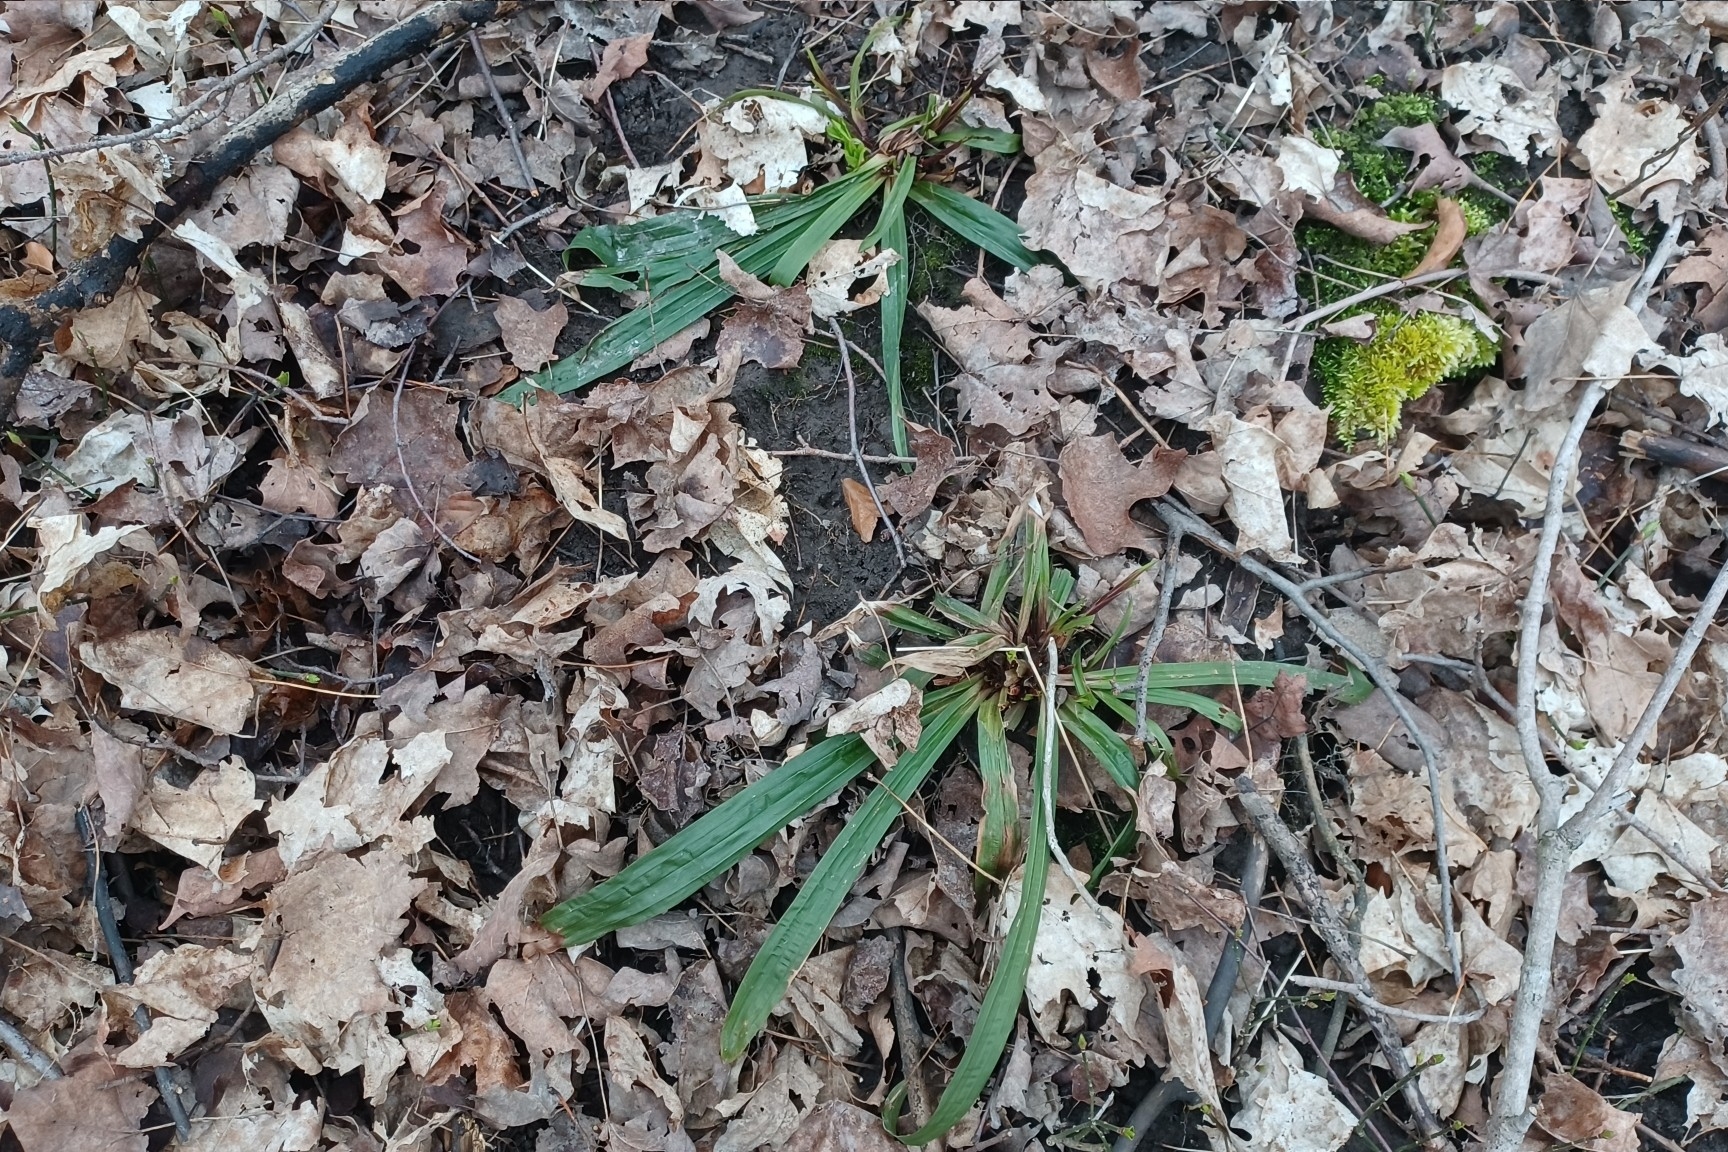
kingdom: Plantae
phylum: Tracheophyta
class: Liliopsida
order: Poales
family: Cyperaceae
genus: Carex
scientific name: Carex plantaginea
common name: Plantain-leaved sedge
